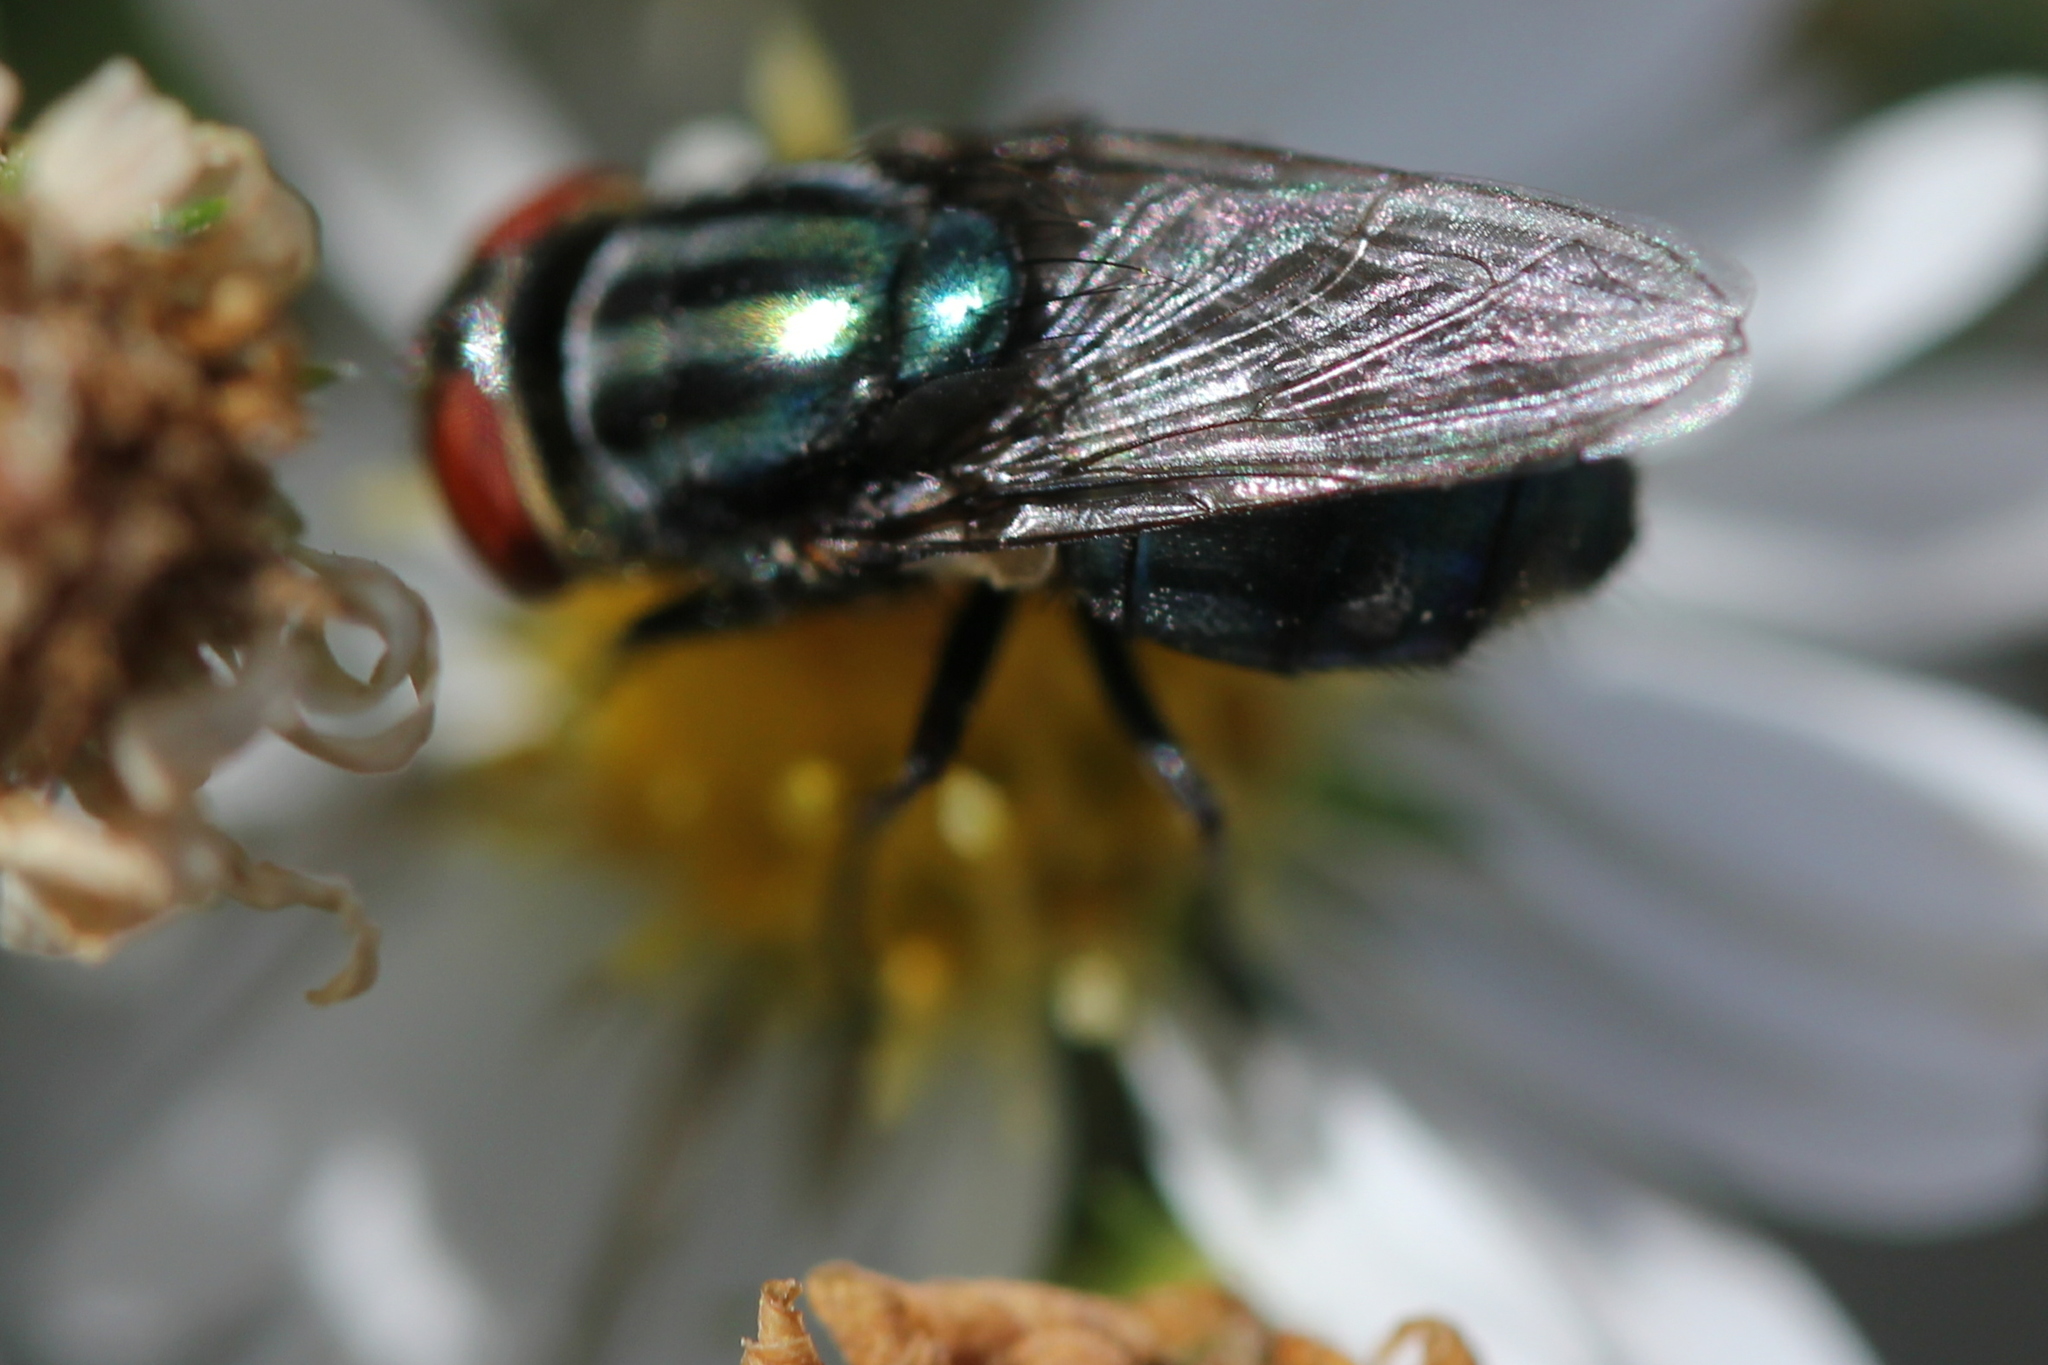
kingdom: Animalia
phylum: Arthropoda
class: Insecta
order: Diptera
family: Calliphoridae
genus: Cochliomyia
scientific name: Cochliomyia macellaria
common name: Secondary screwworm
